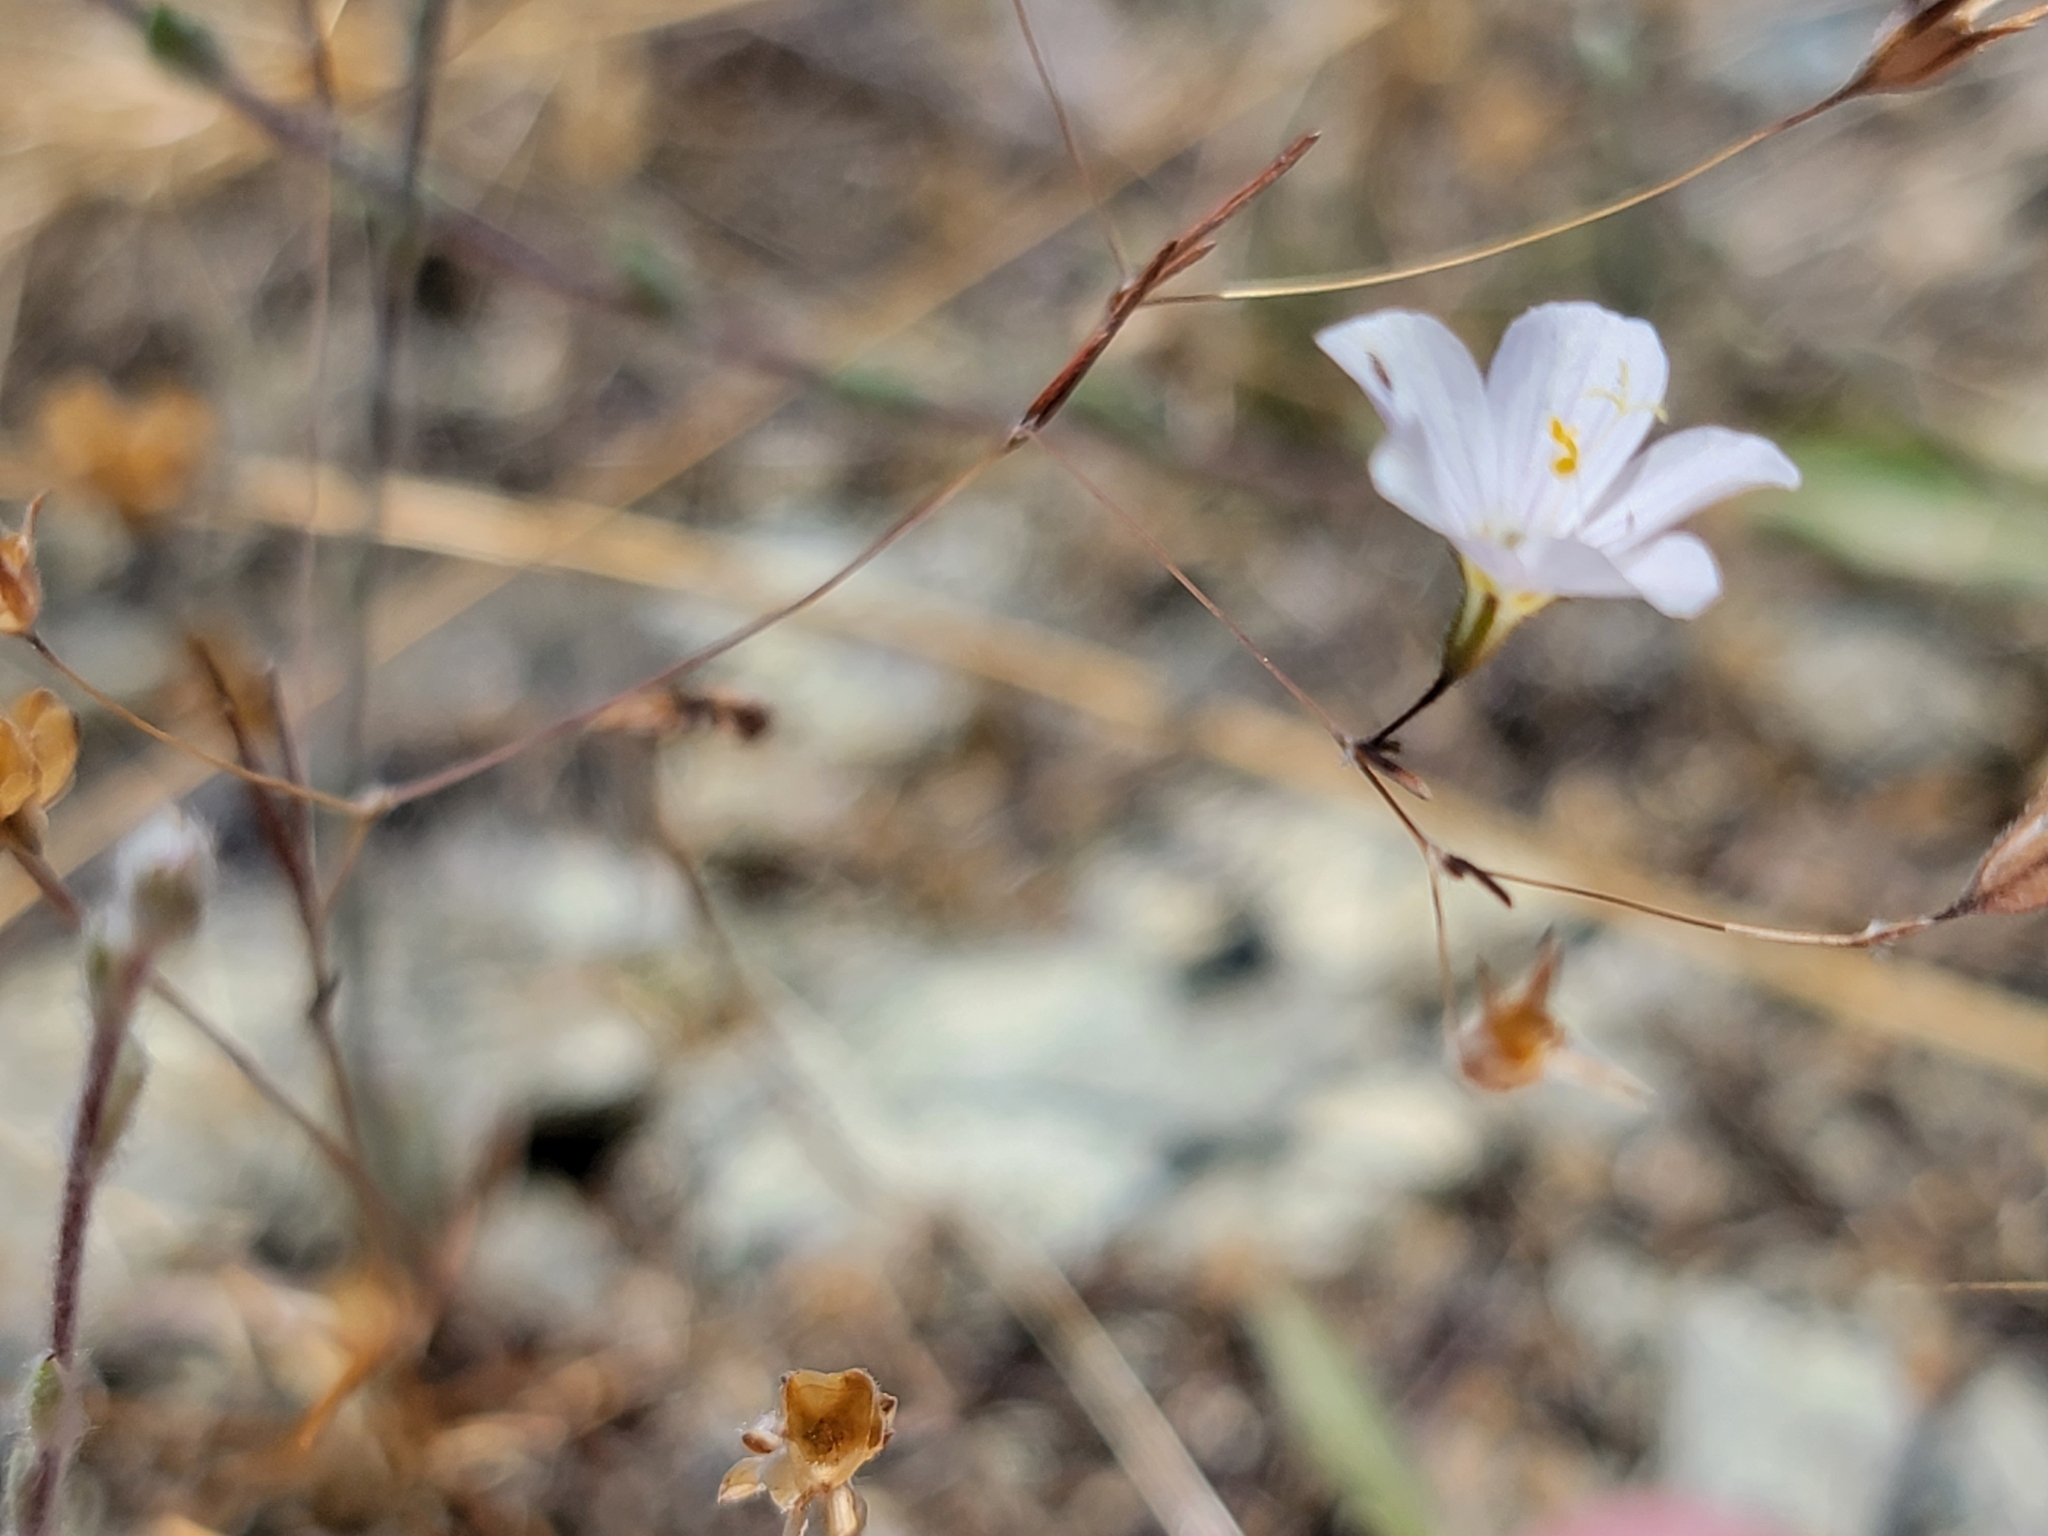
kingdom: Plantae
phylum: Tracheophyta
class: Magnoliopsida
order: Ericales
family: Polemoniaceae
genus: Leptosiphon
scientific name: Leptosiphon liniflorus
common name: Narrowflower flaxflower
